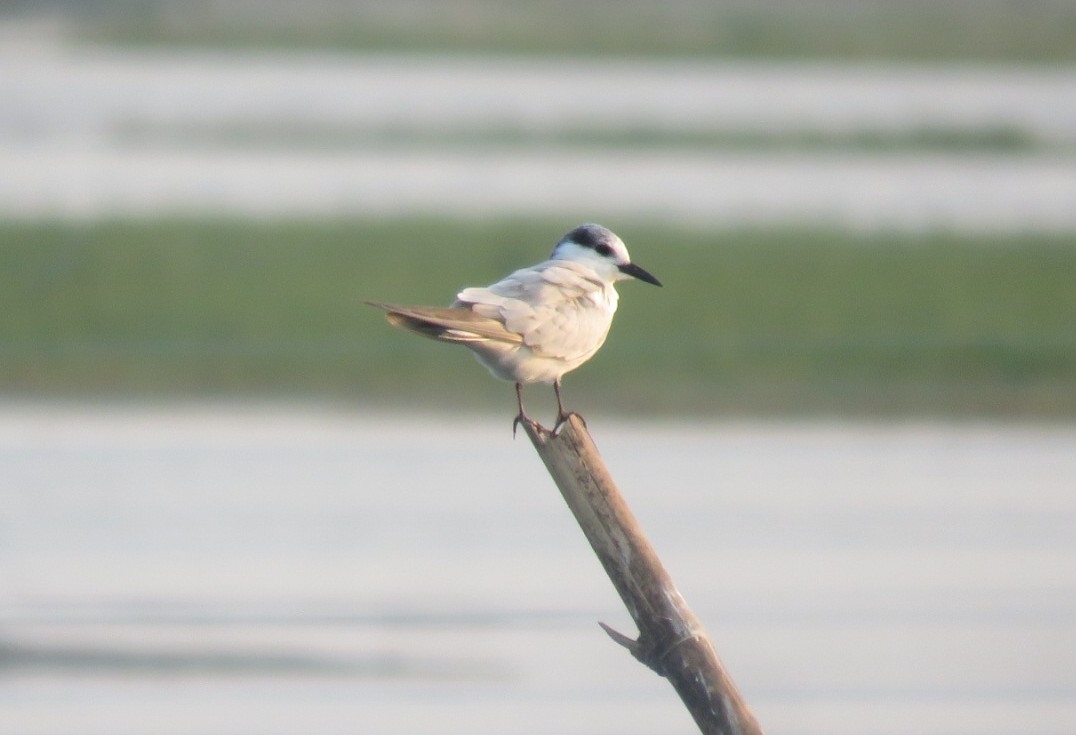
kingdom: Animalia
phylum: Chordata
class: Aves
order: Charadriiformes
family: Laridae
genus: Chlidonias
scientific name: Chlidonias hybrida
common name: Whiskered tern
